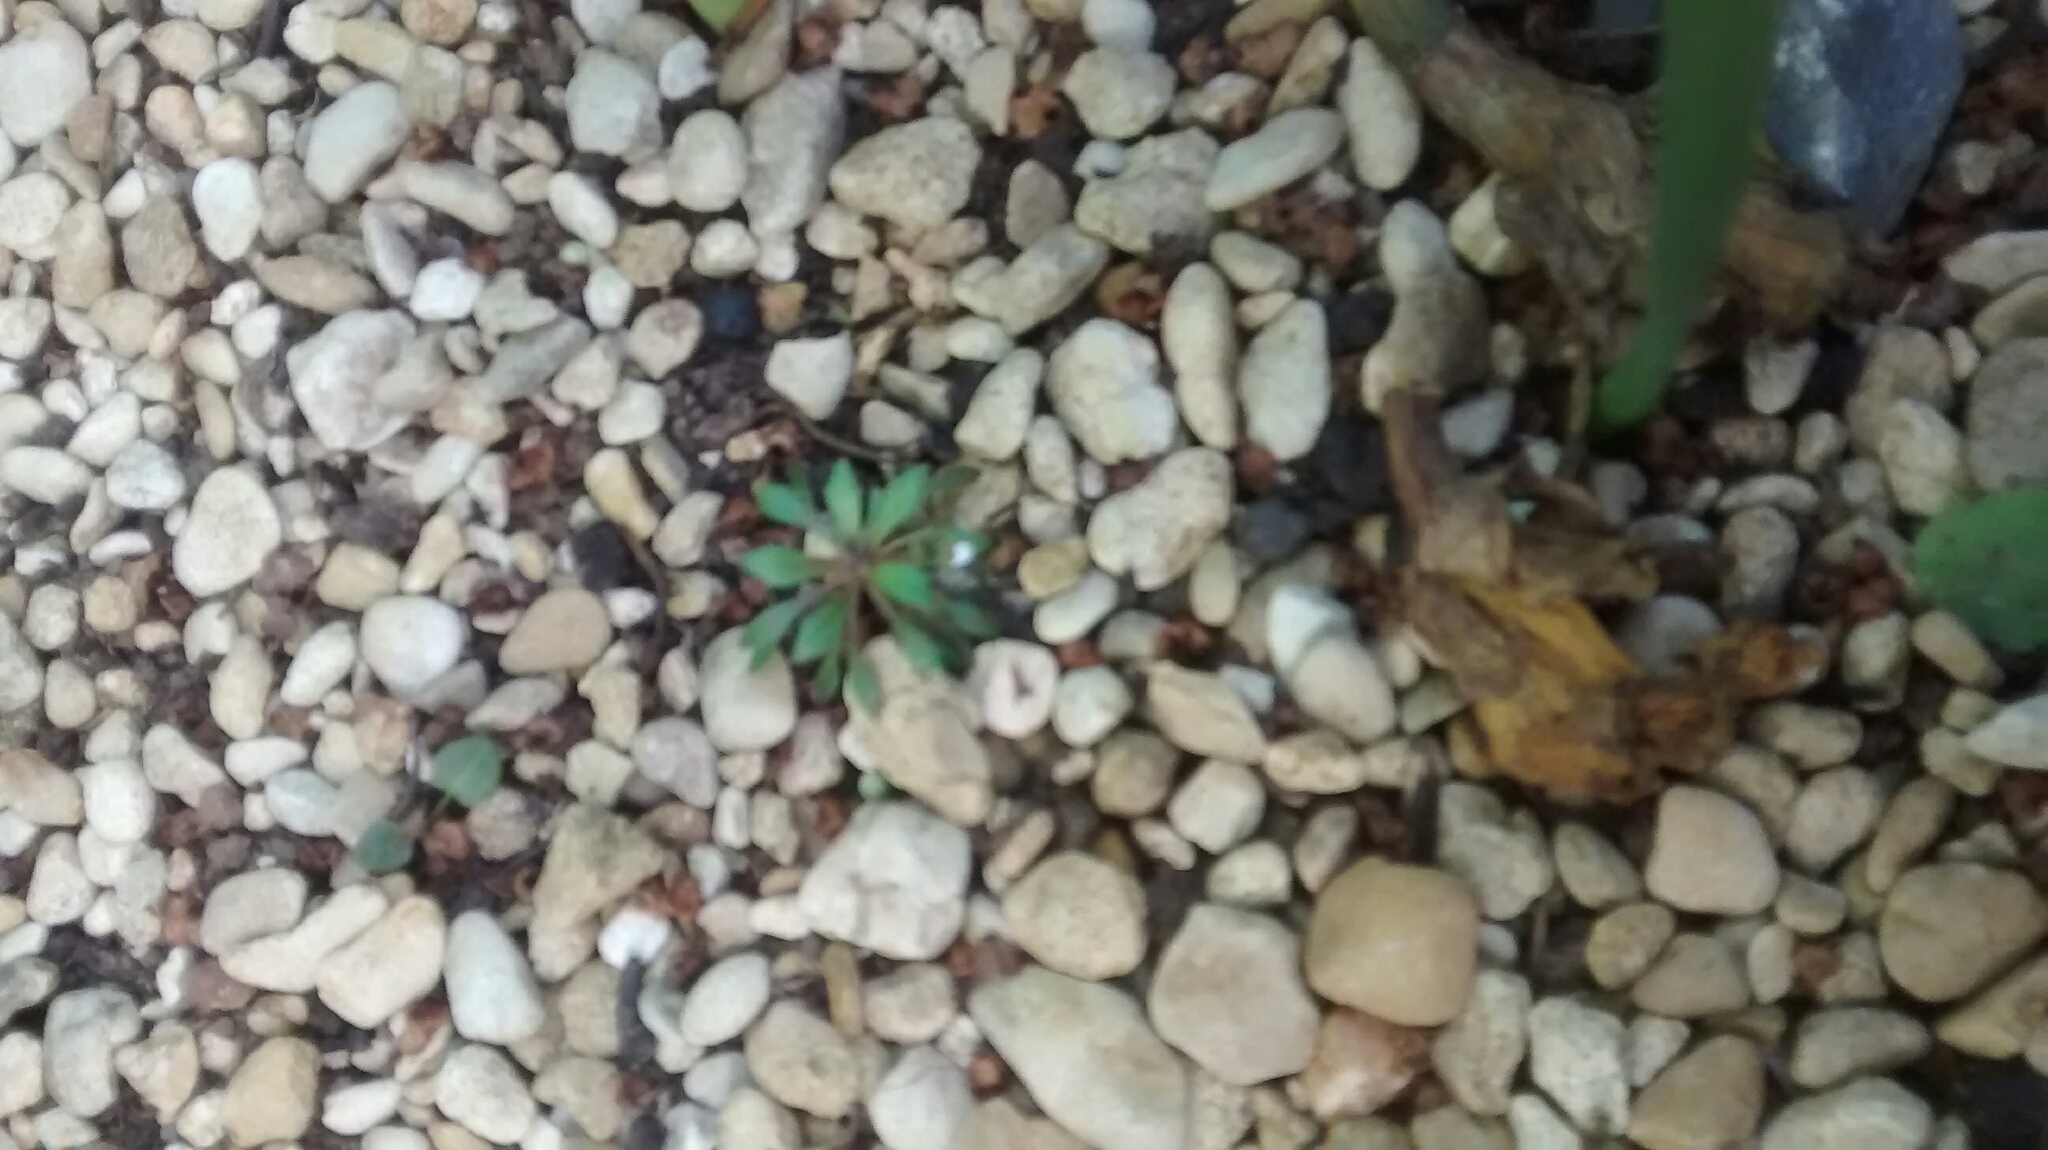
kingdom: Plantae
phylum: Tracheophyta
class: Magnoliopsida
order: Brassicales
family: Brassicaceae
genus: Draba
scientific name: Draba verna
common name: Spring draba
